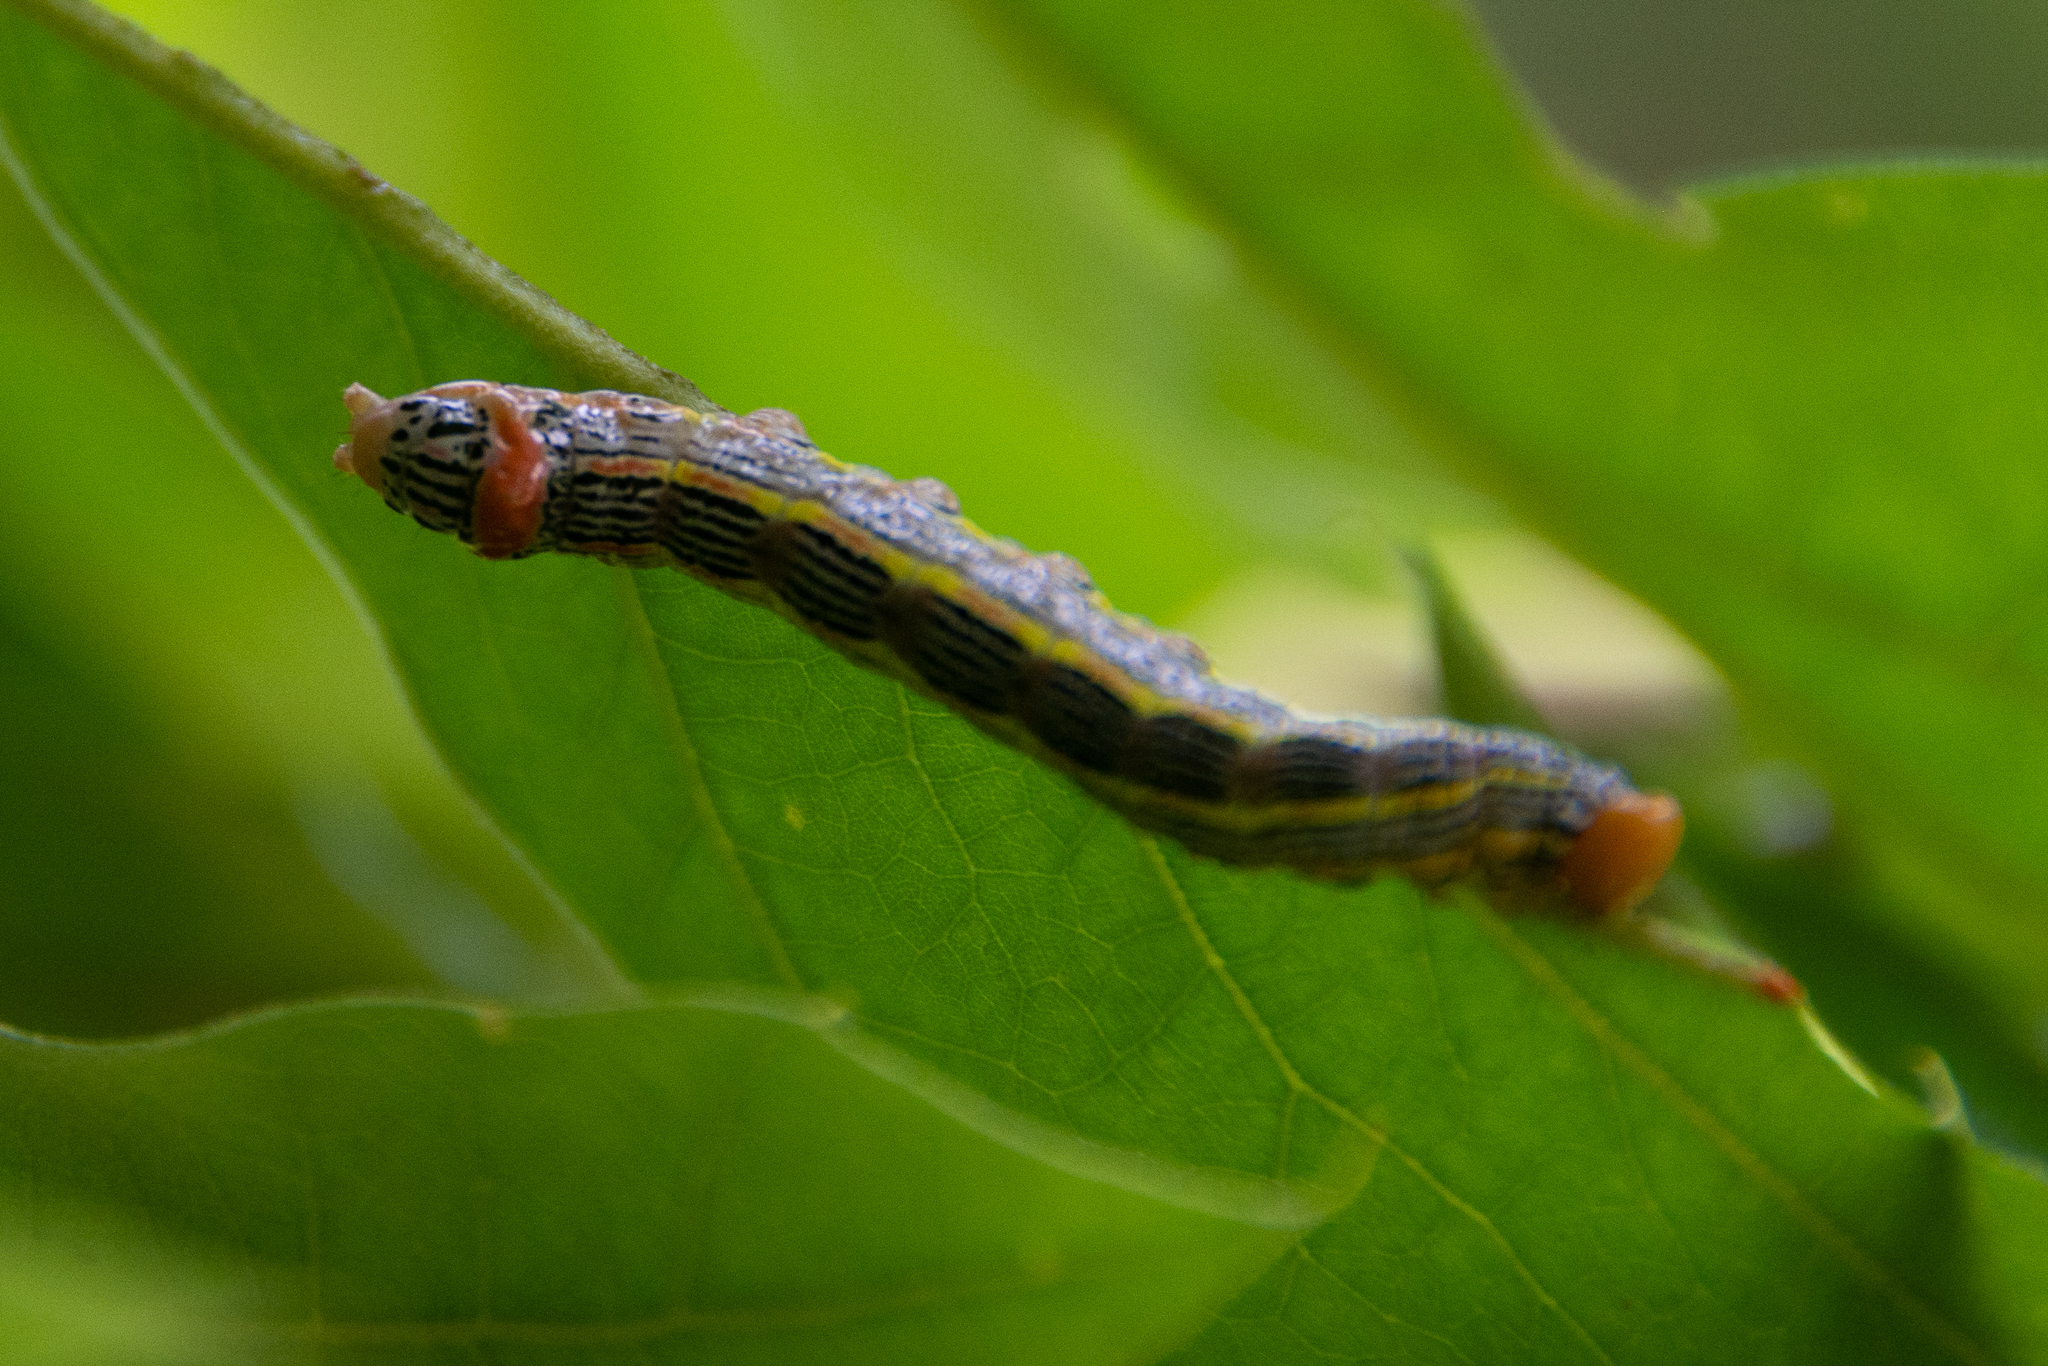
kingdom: Animalia
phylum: Arthropoda
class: Insecta
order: Lepidoptera
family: Notodontidae
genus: Symmerista
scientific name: Symmerista albifrons
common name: White-headed prominent
